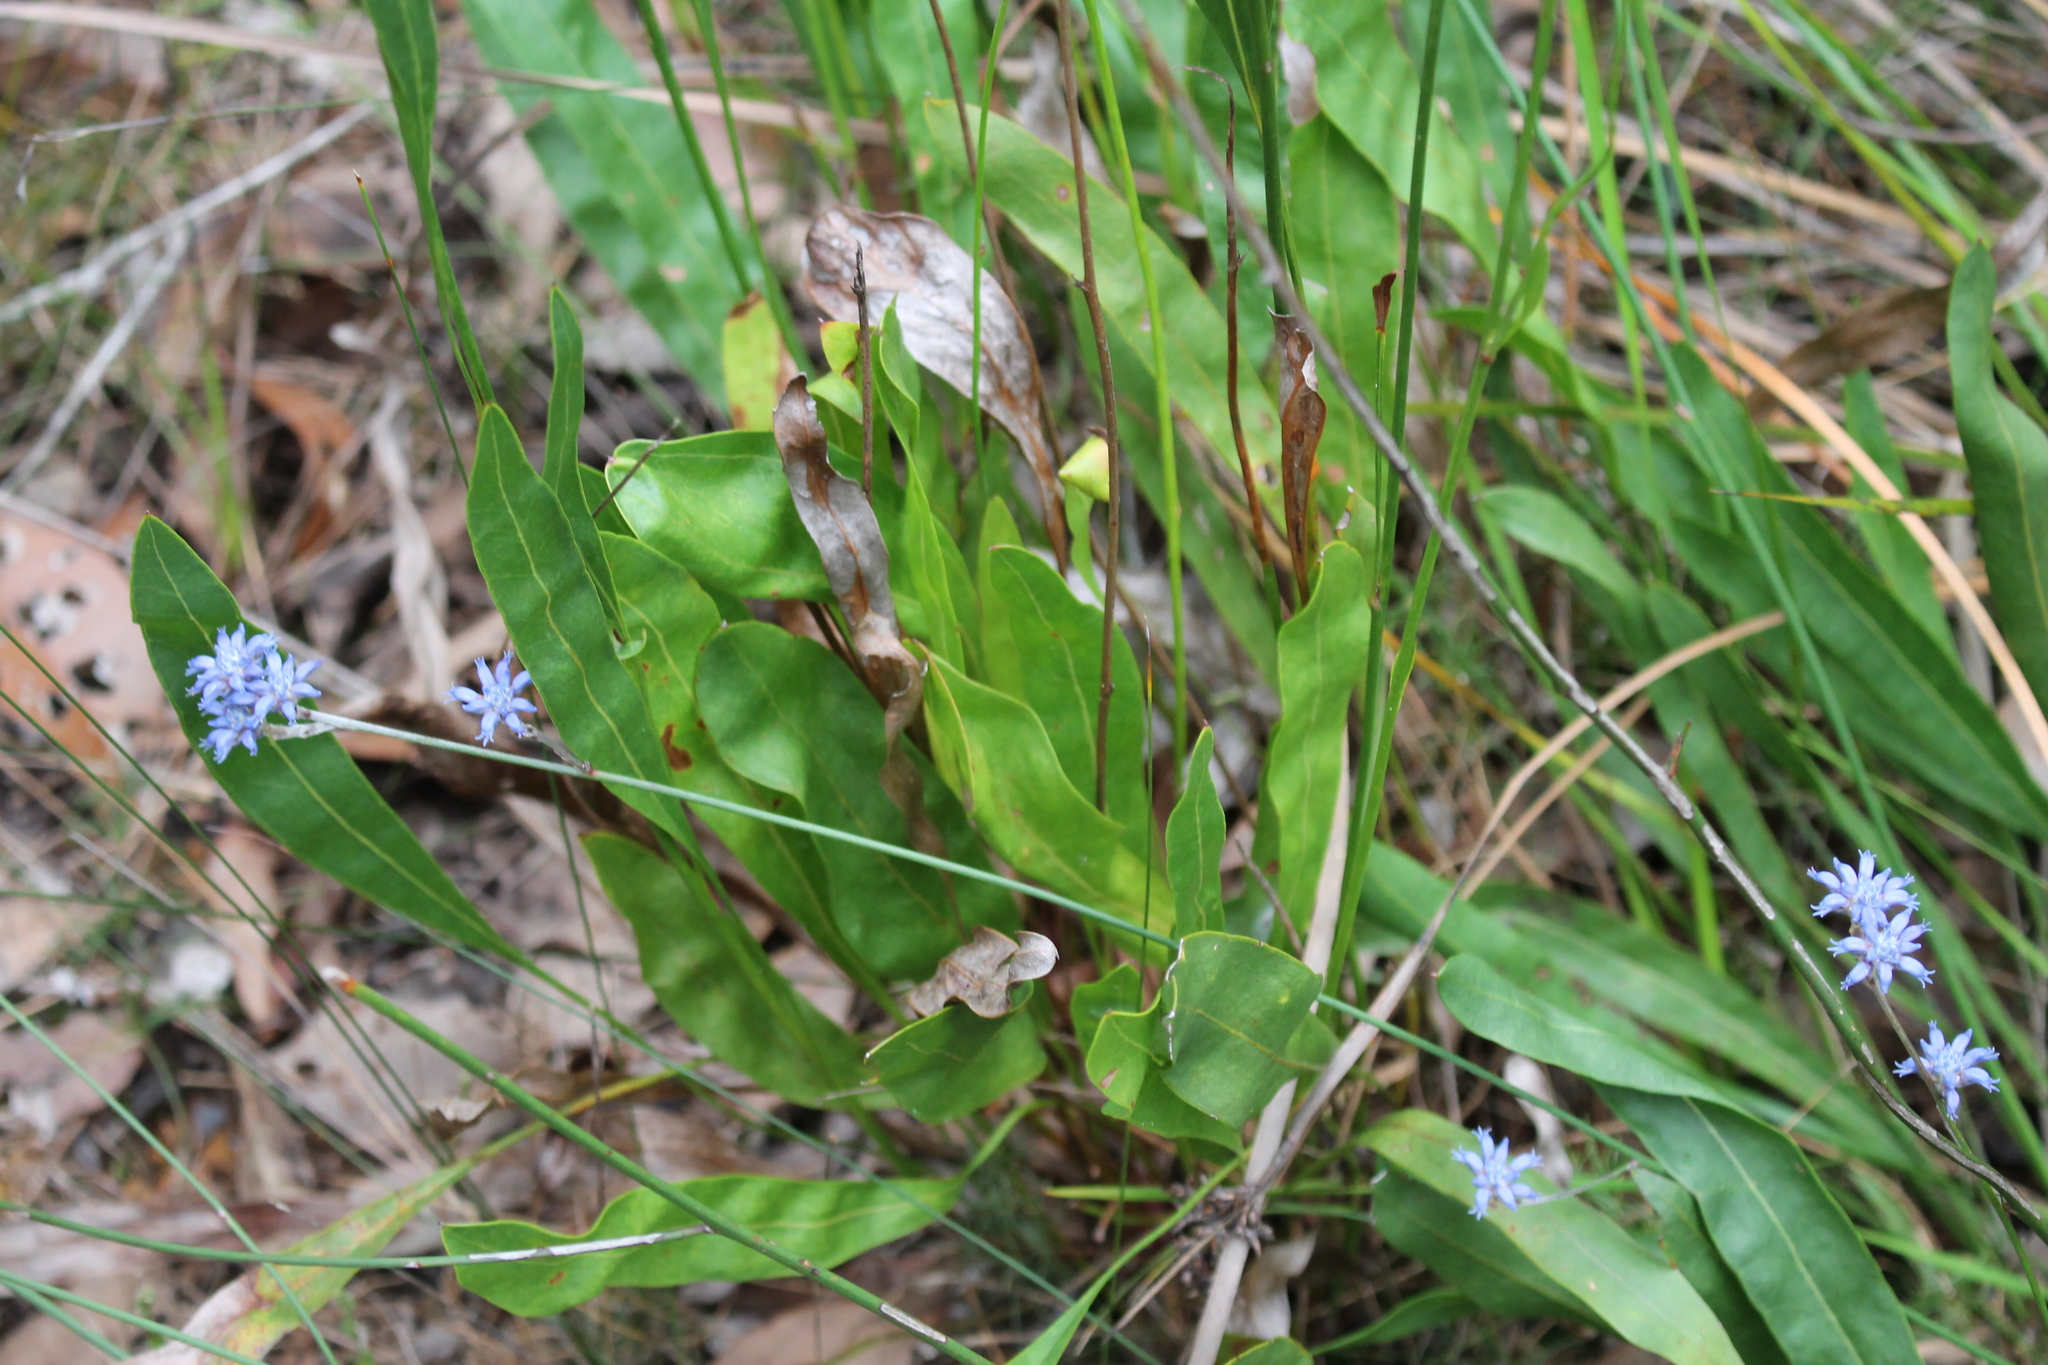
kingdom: Plantae
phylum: Tracheophyta
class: Magnoliopsida
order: Proteales
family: Proteaceae
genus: Conospermum
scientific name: Conospermum caeruleum
